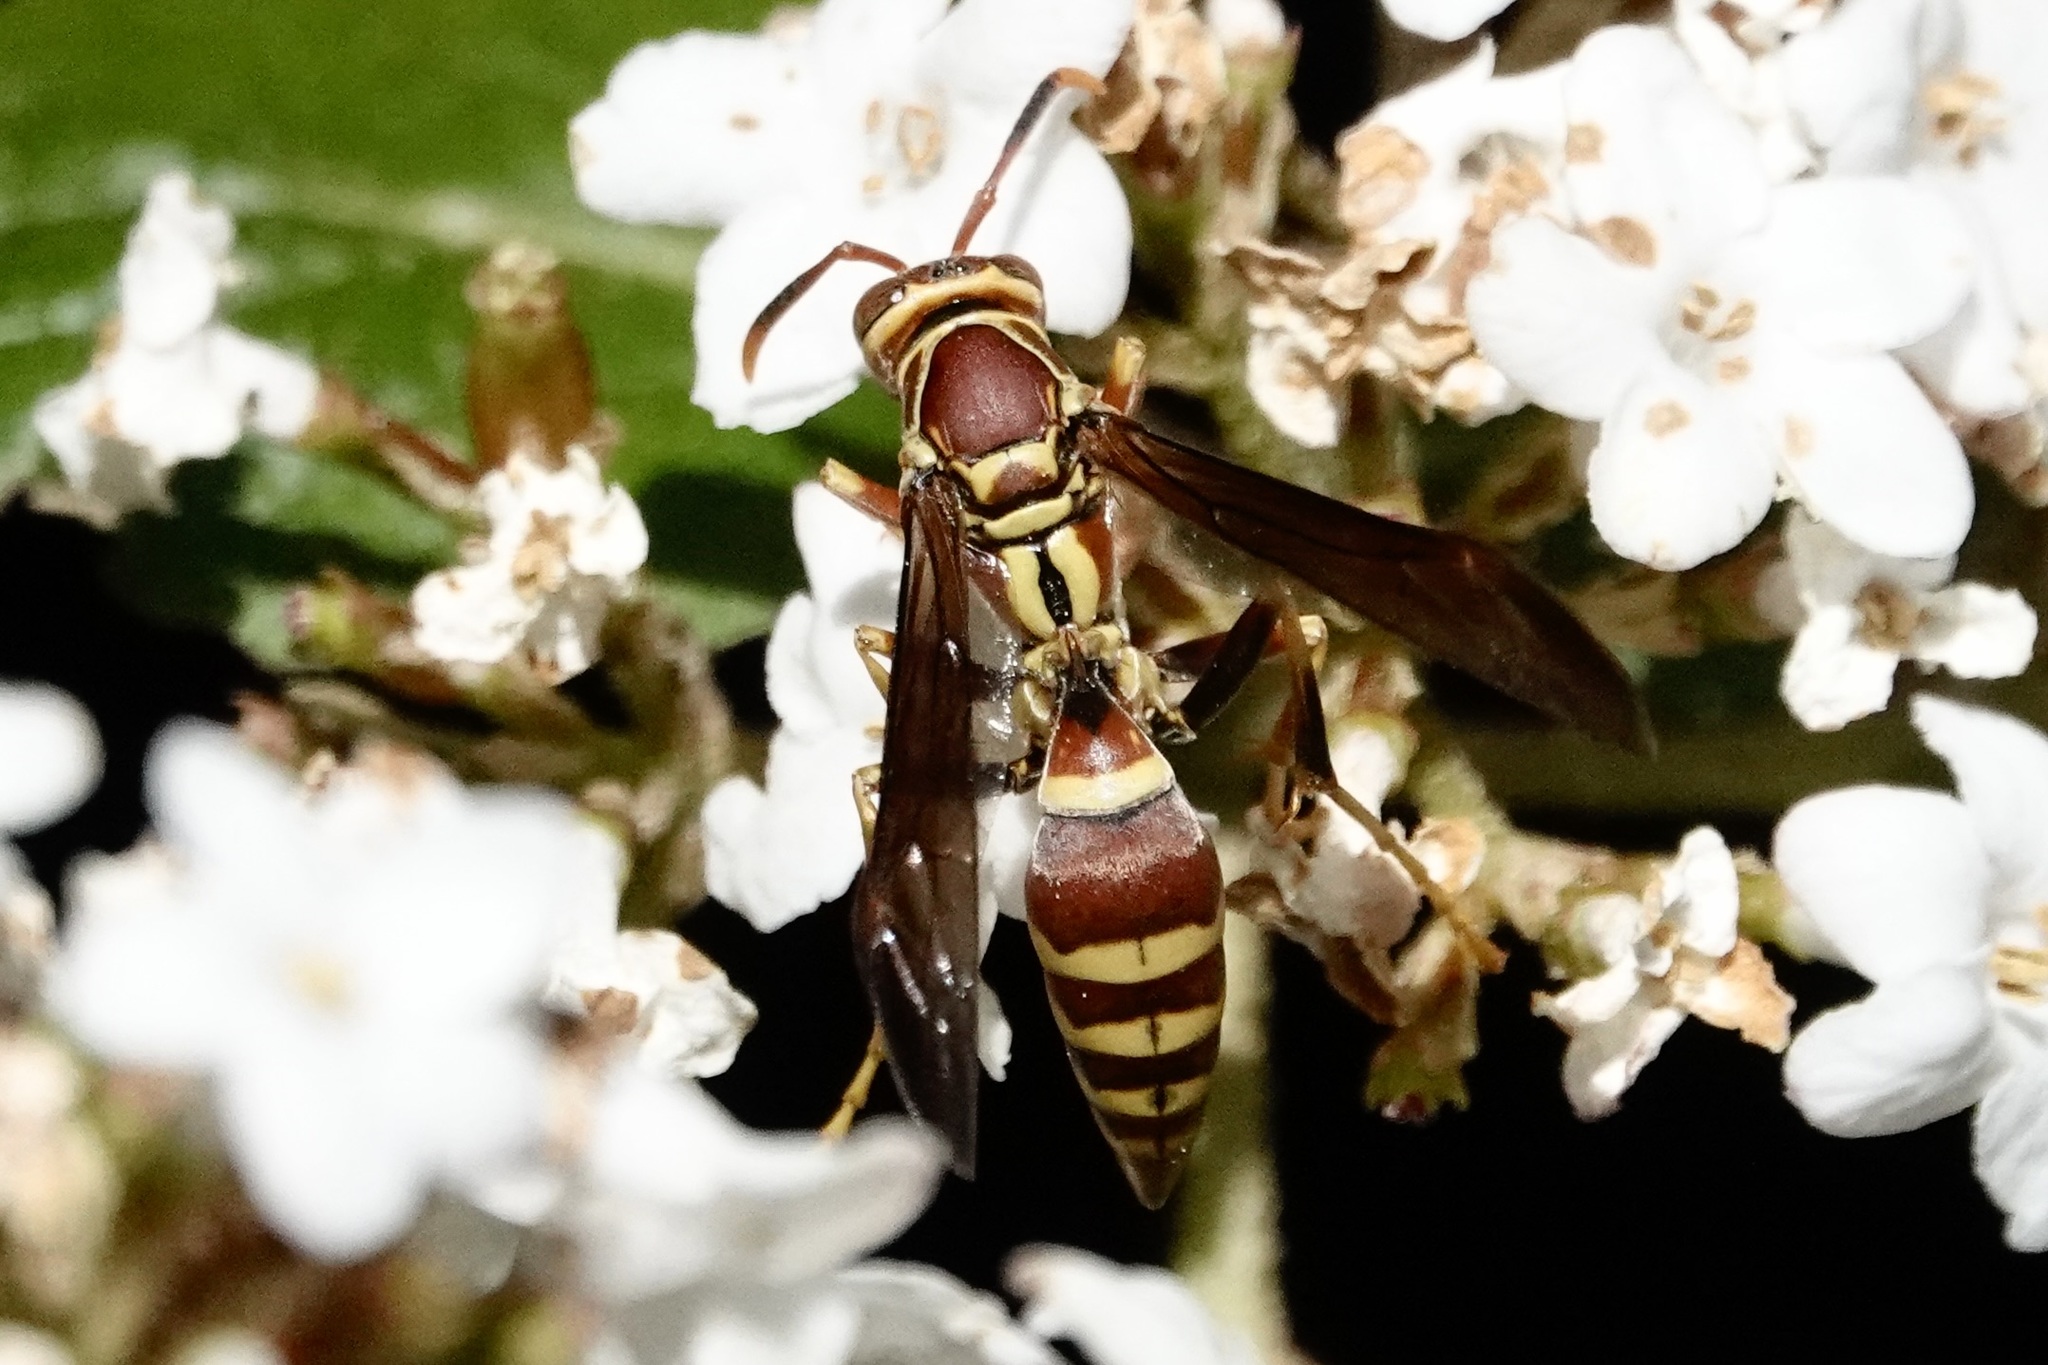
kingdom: Animalia
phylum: Arthropoda
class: Insecta
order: Hymenoptera
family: Eumenidae
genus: Polistes
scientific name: Polistes exclamans
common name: Paper wasp
